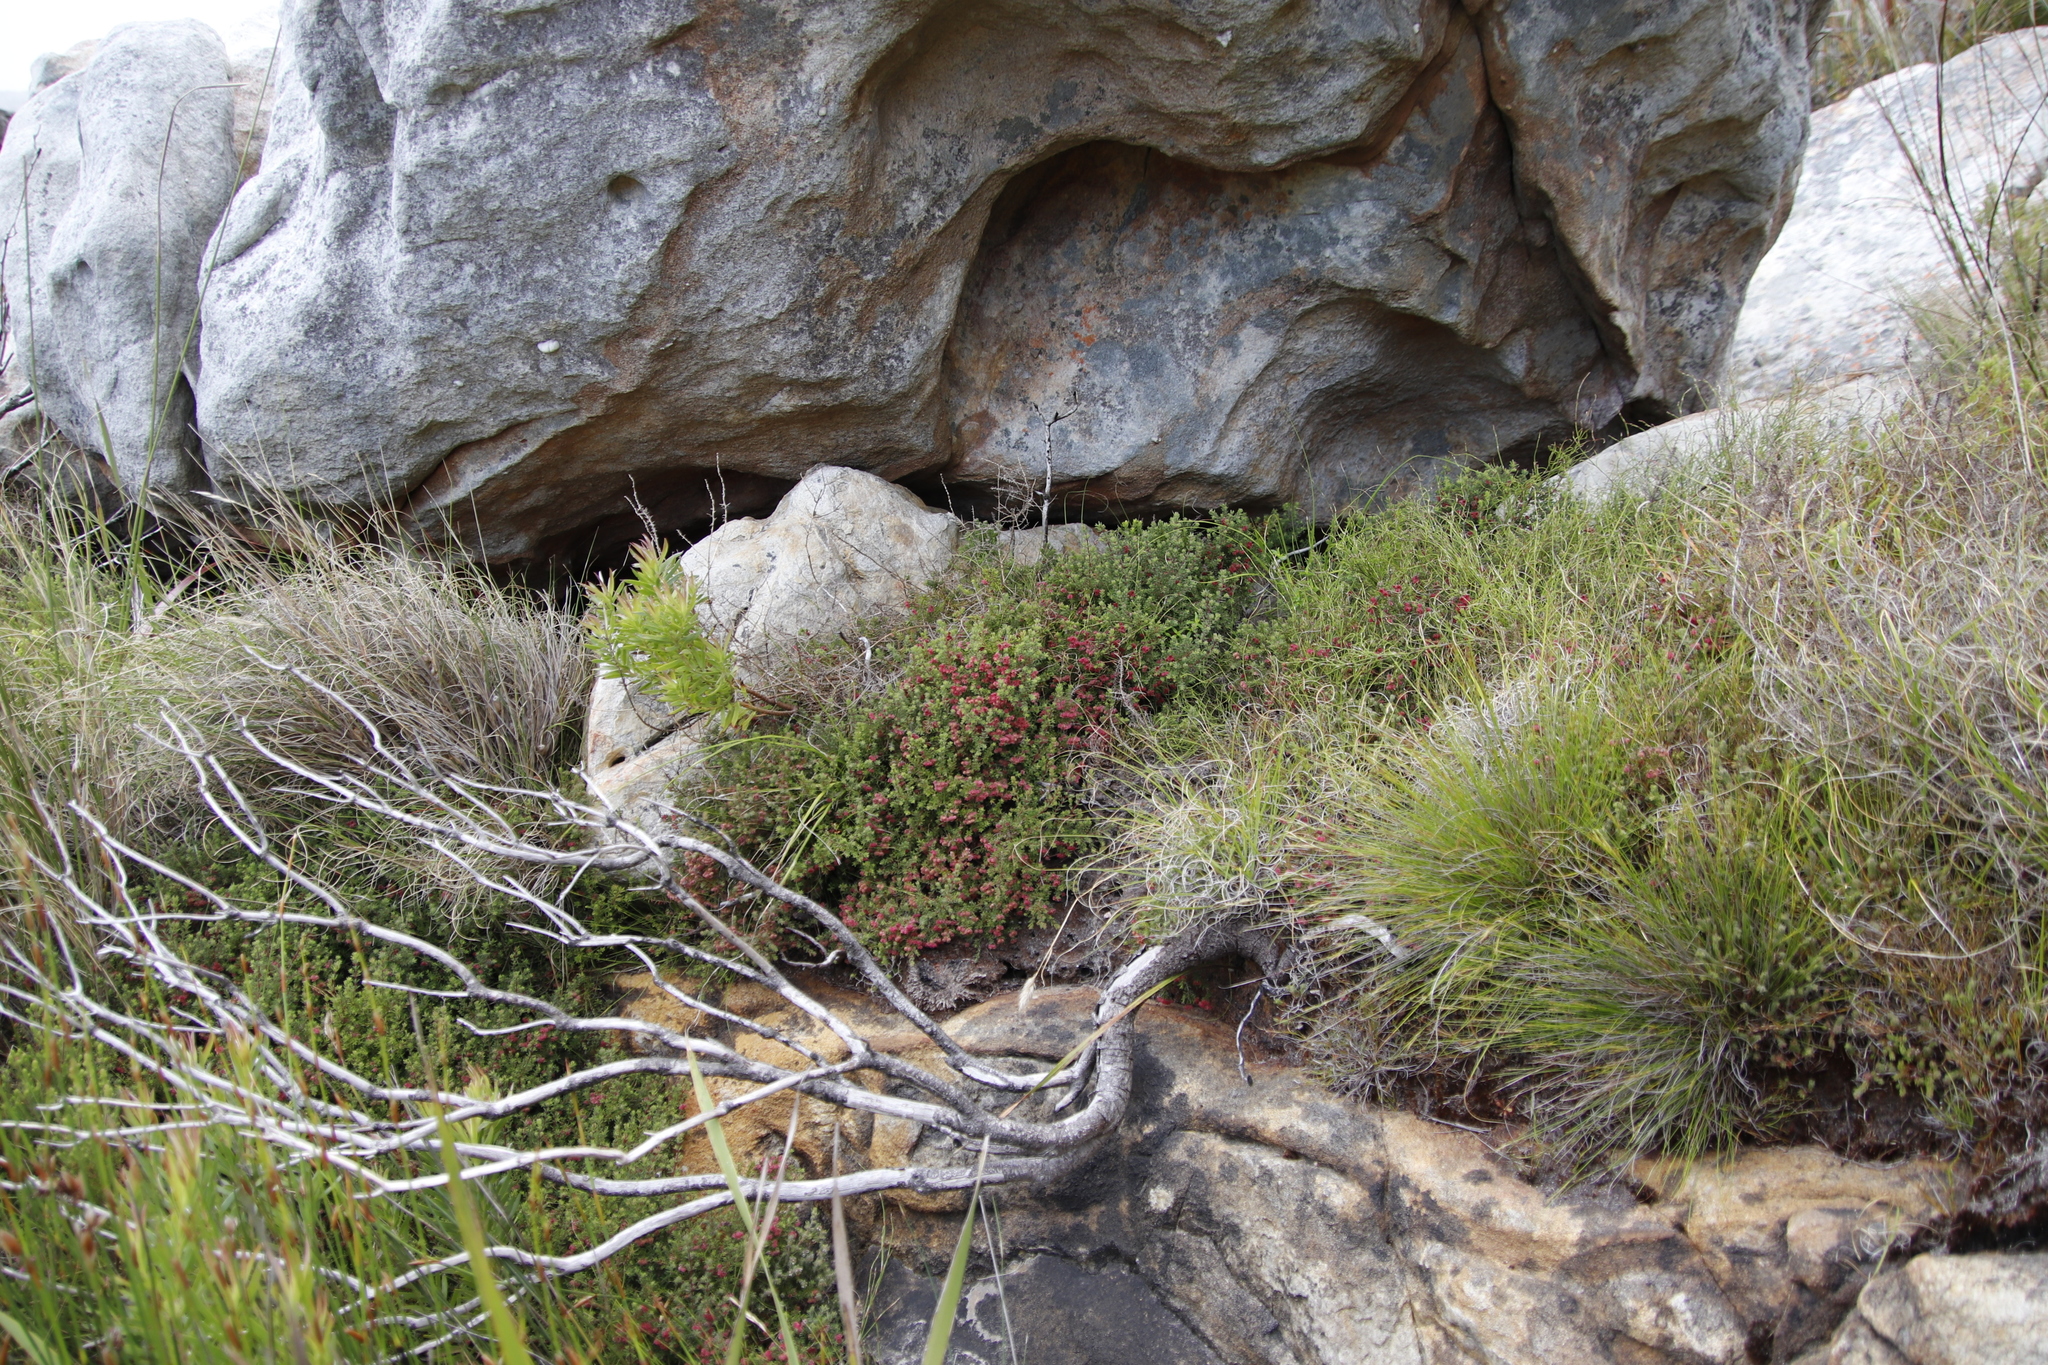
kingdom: Plantae
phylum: Tracheophyta
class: Magnoliopsida
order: Ericales
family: Ericaceae
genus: Erica
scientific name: Erica haematocodon
